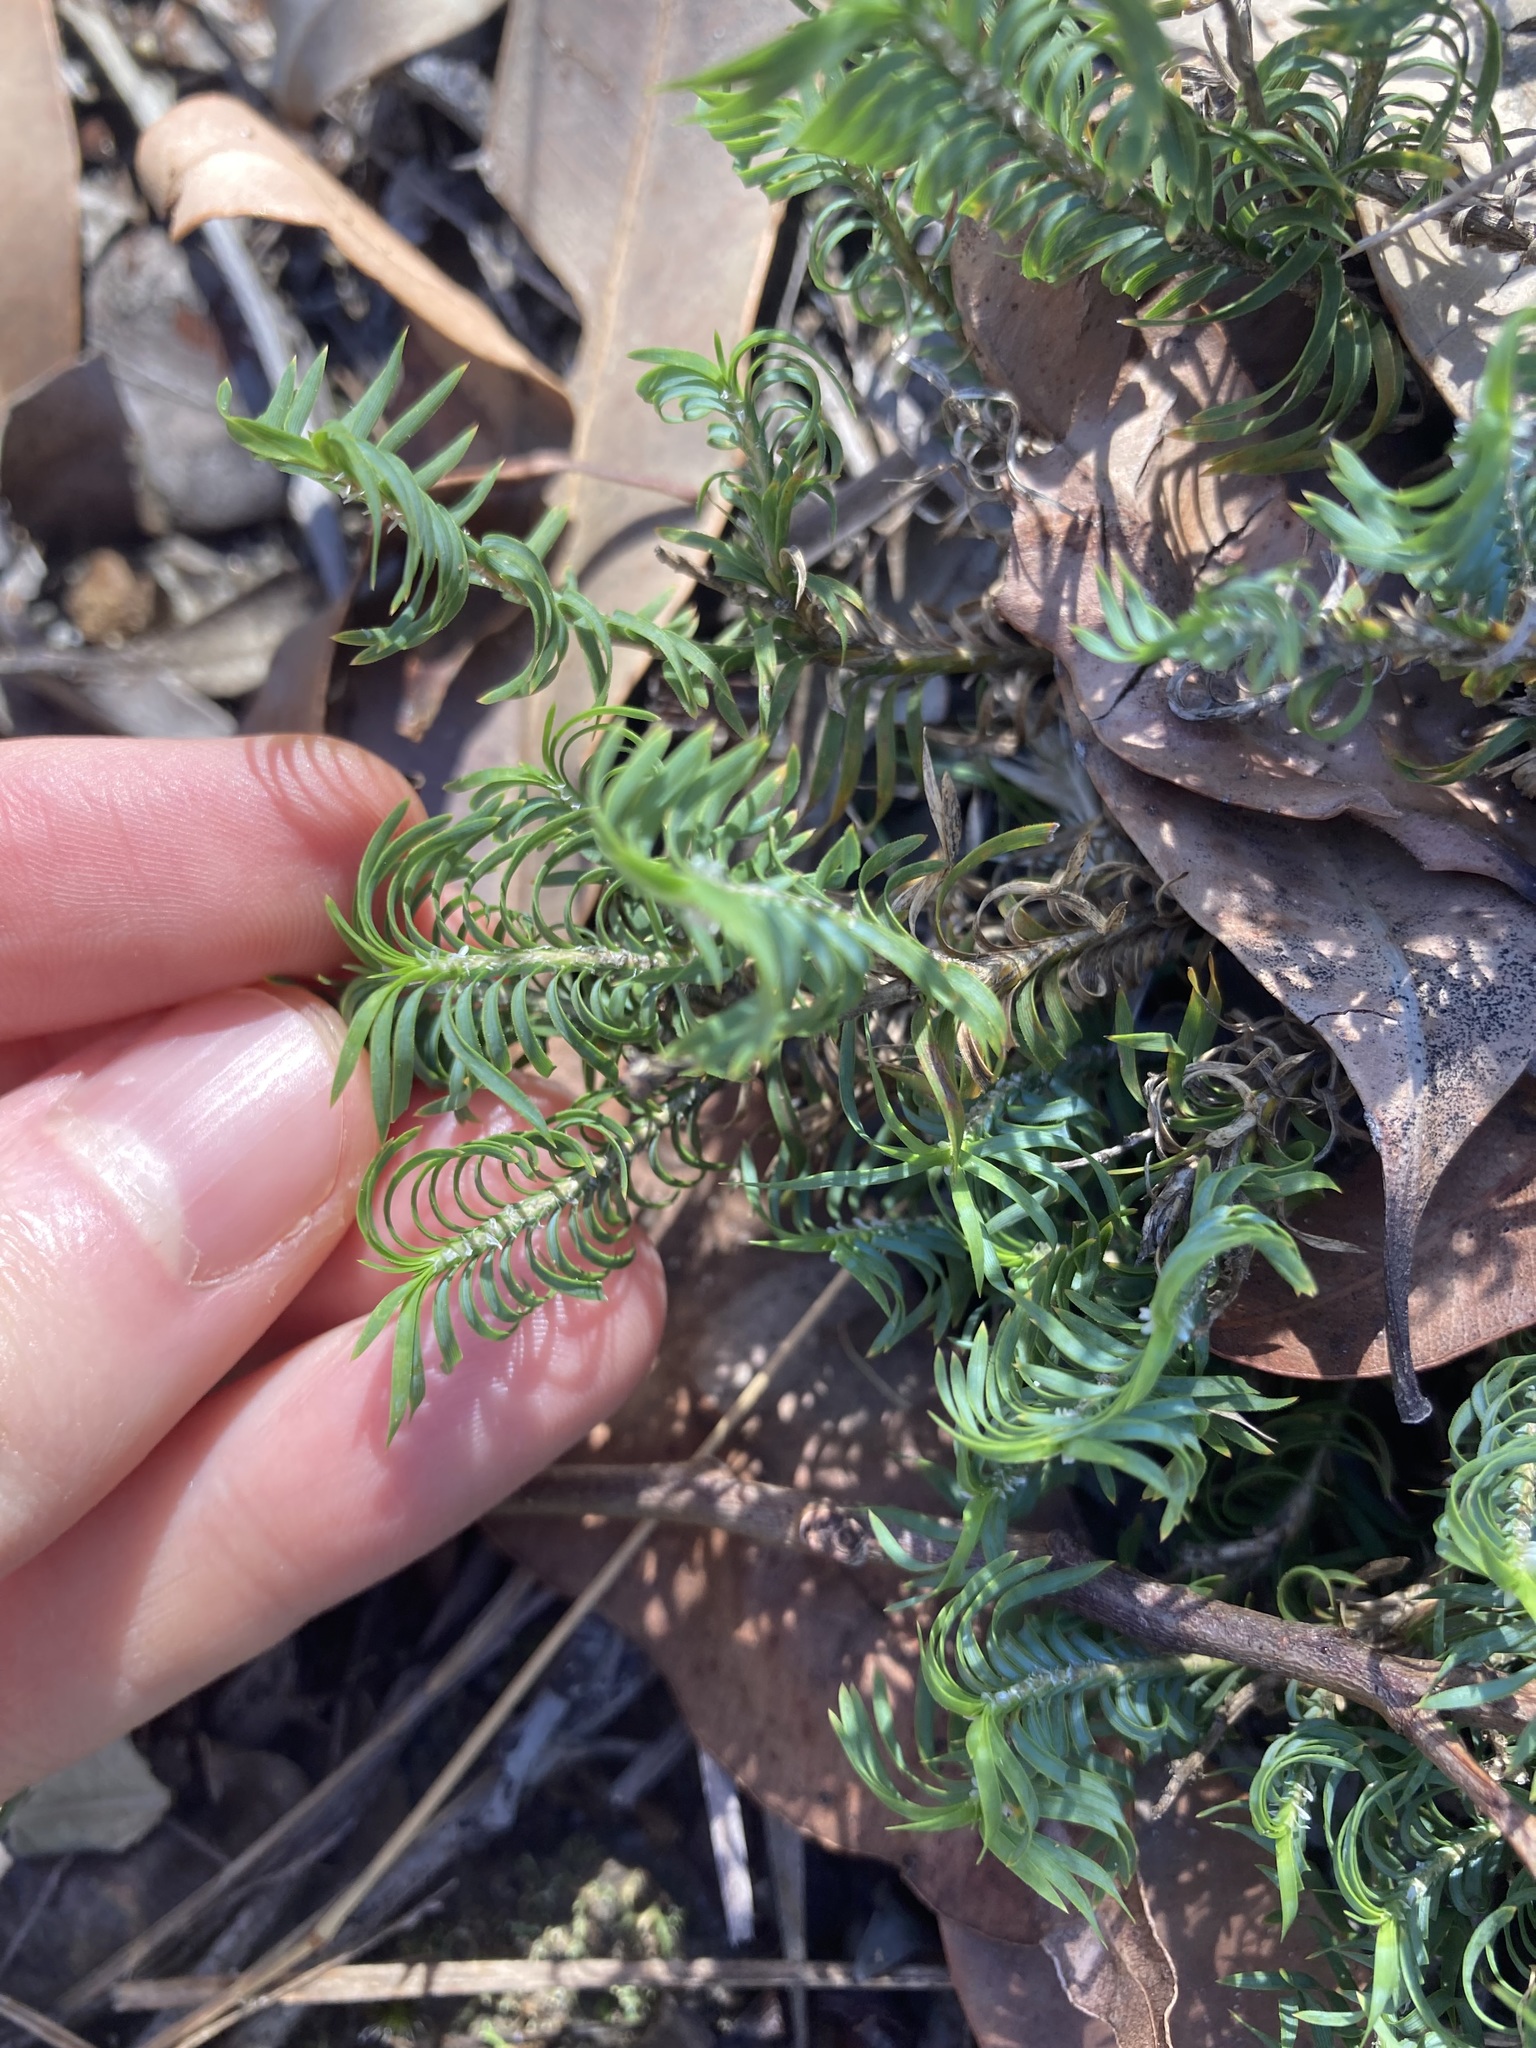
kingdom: Plantae
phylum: Tracheophyta
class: Liliopsida
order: Asparagales
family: Asparagaceae
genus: Lomandra
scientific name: Lomandra obliqua
